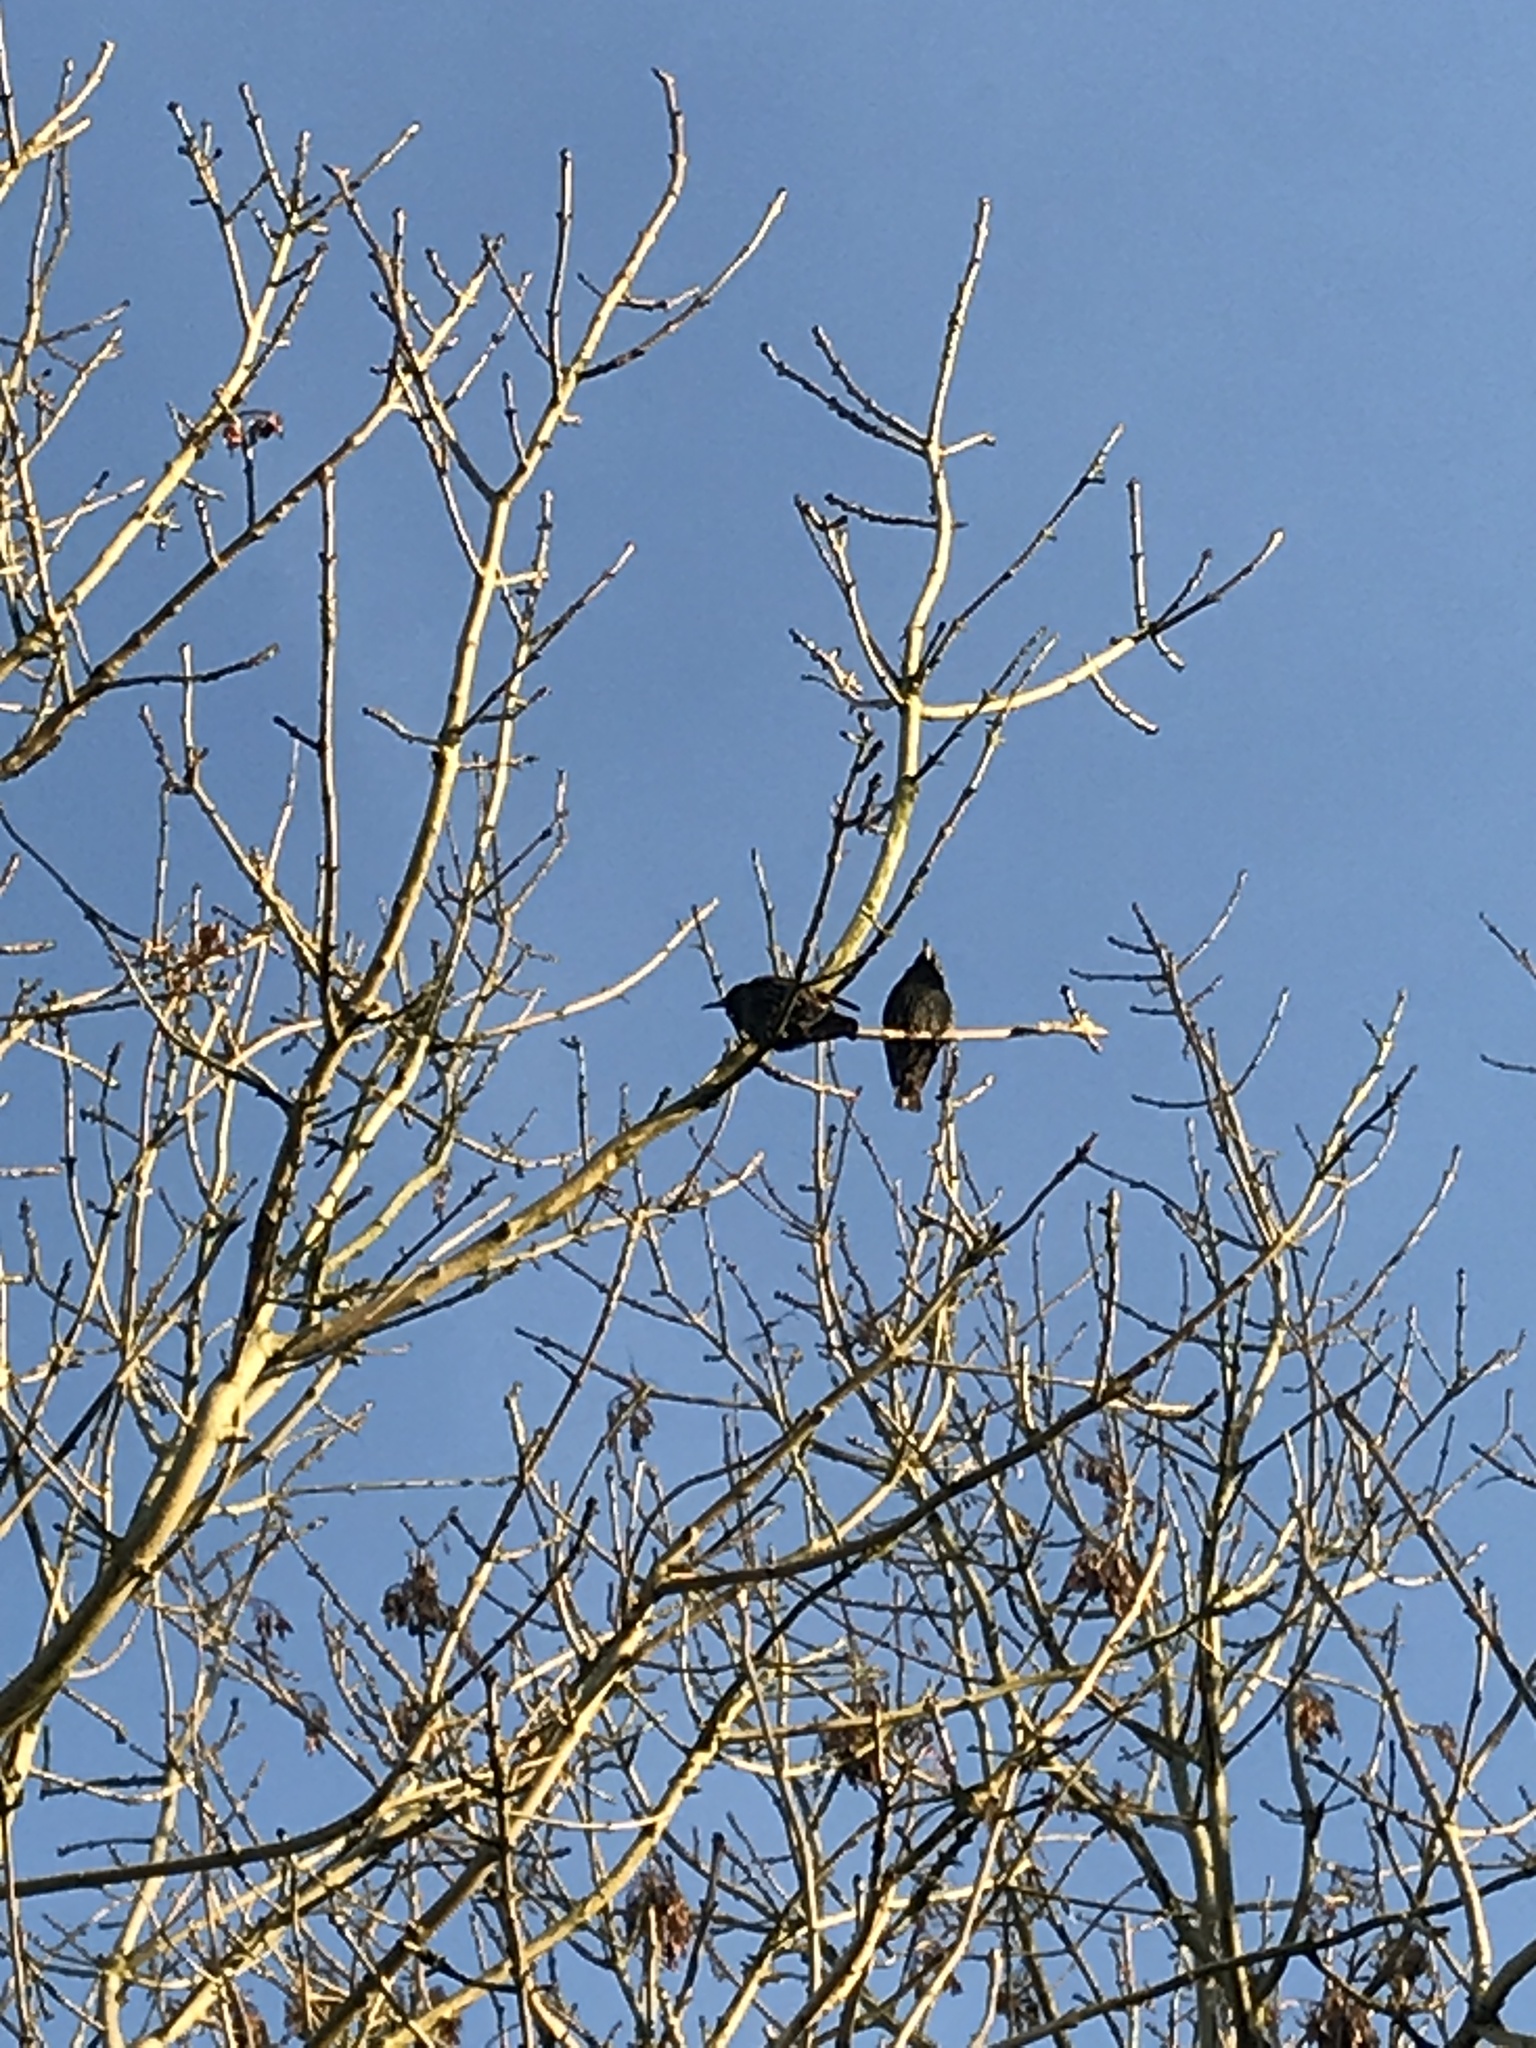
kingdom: Animalia
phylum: Chordata
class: Aves
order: Passeriformes
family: Sturnidae
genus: Sturnus
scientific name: Sturnus vulgaris
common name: Common starling
